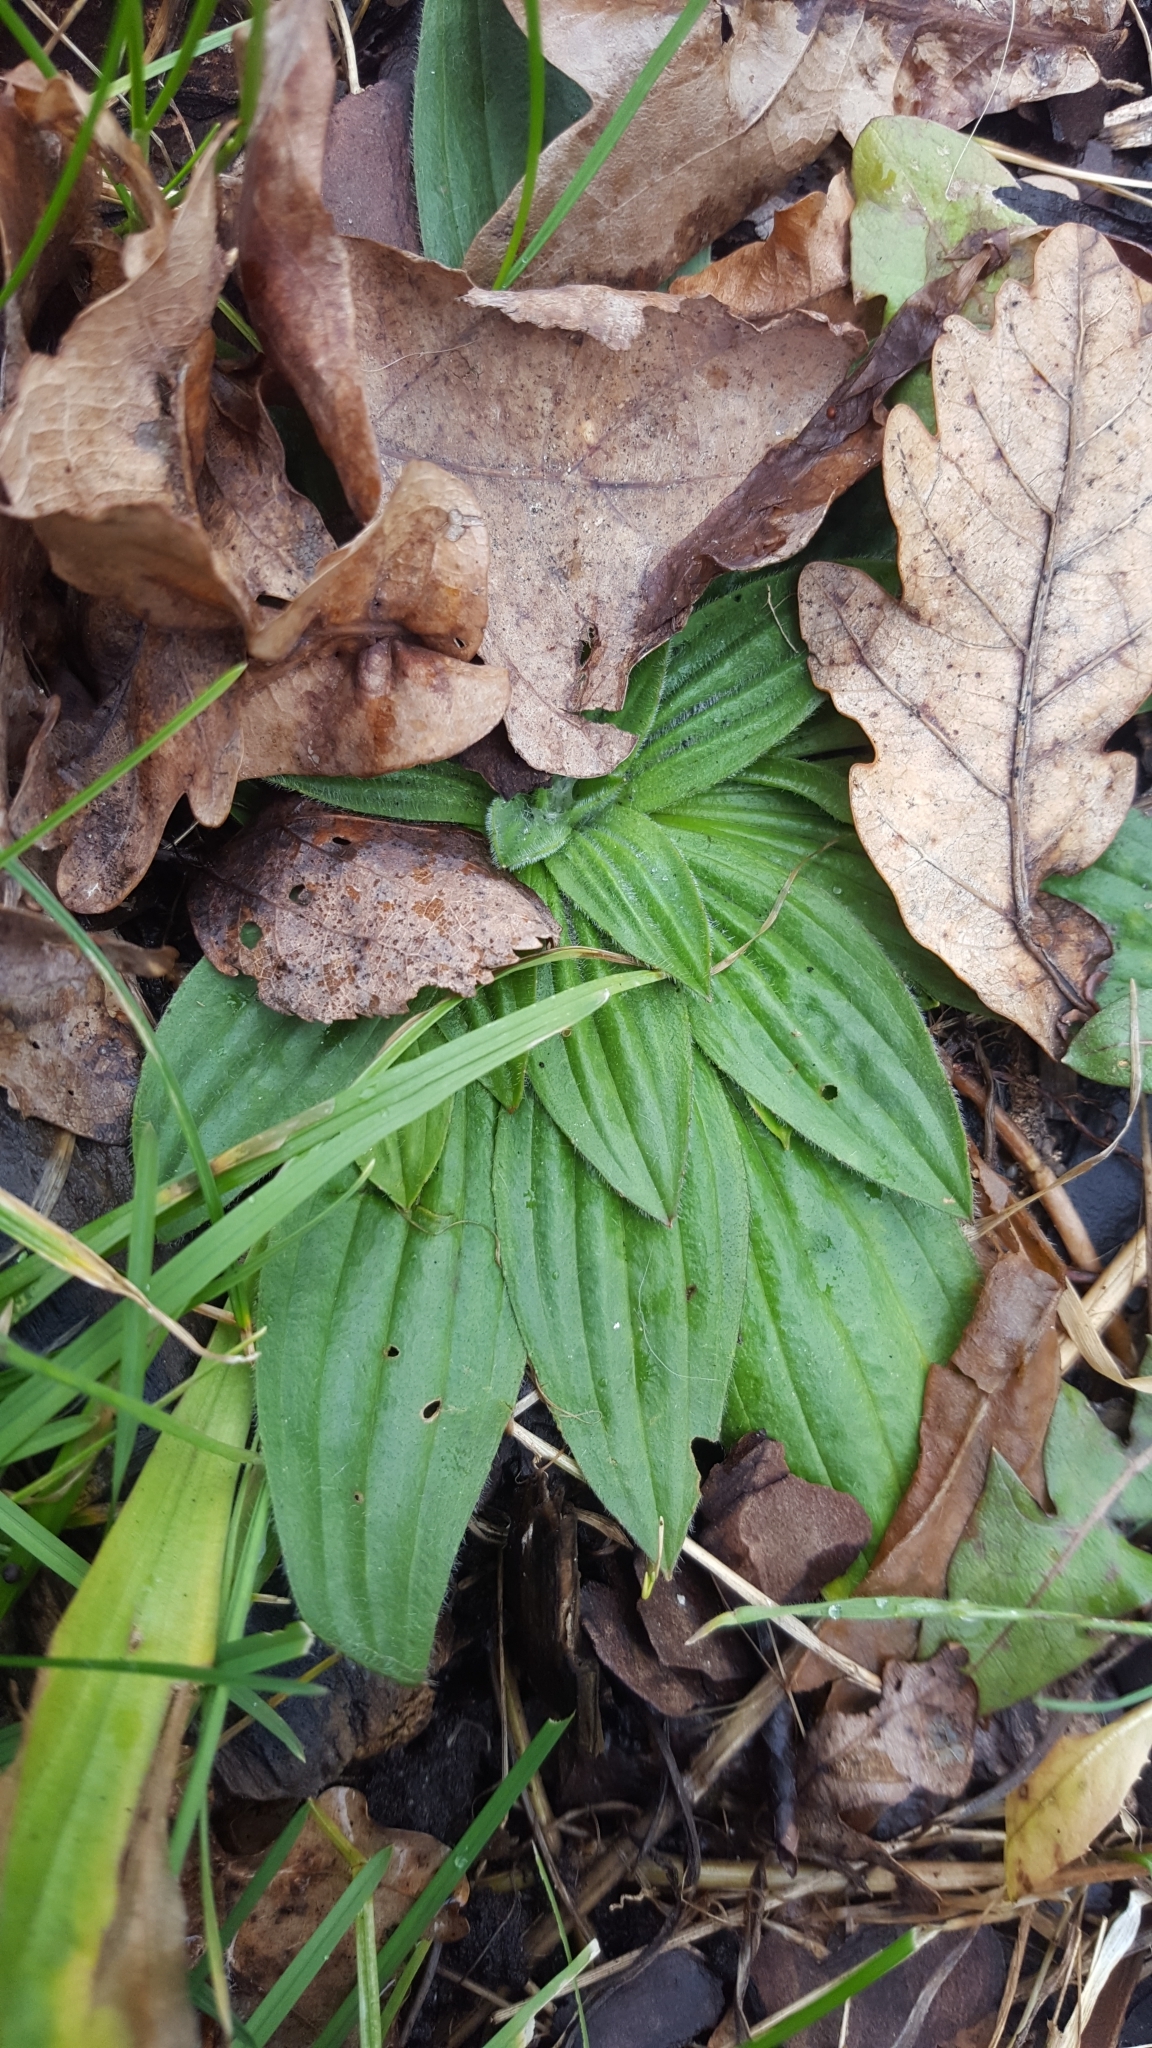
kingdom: Plantae
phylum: Tracheophyta
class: Magnoliopsida
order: Lamiales
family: Plantaginaceae
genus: Plantago
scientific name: Plantago lanceolata
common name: Ribwort plantain
